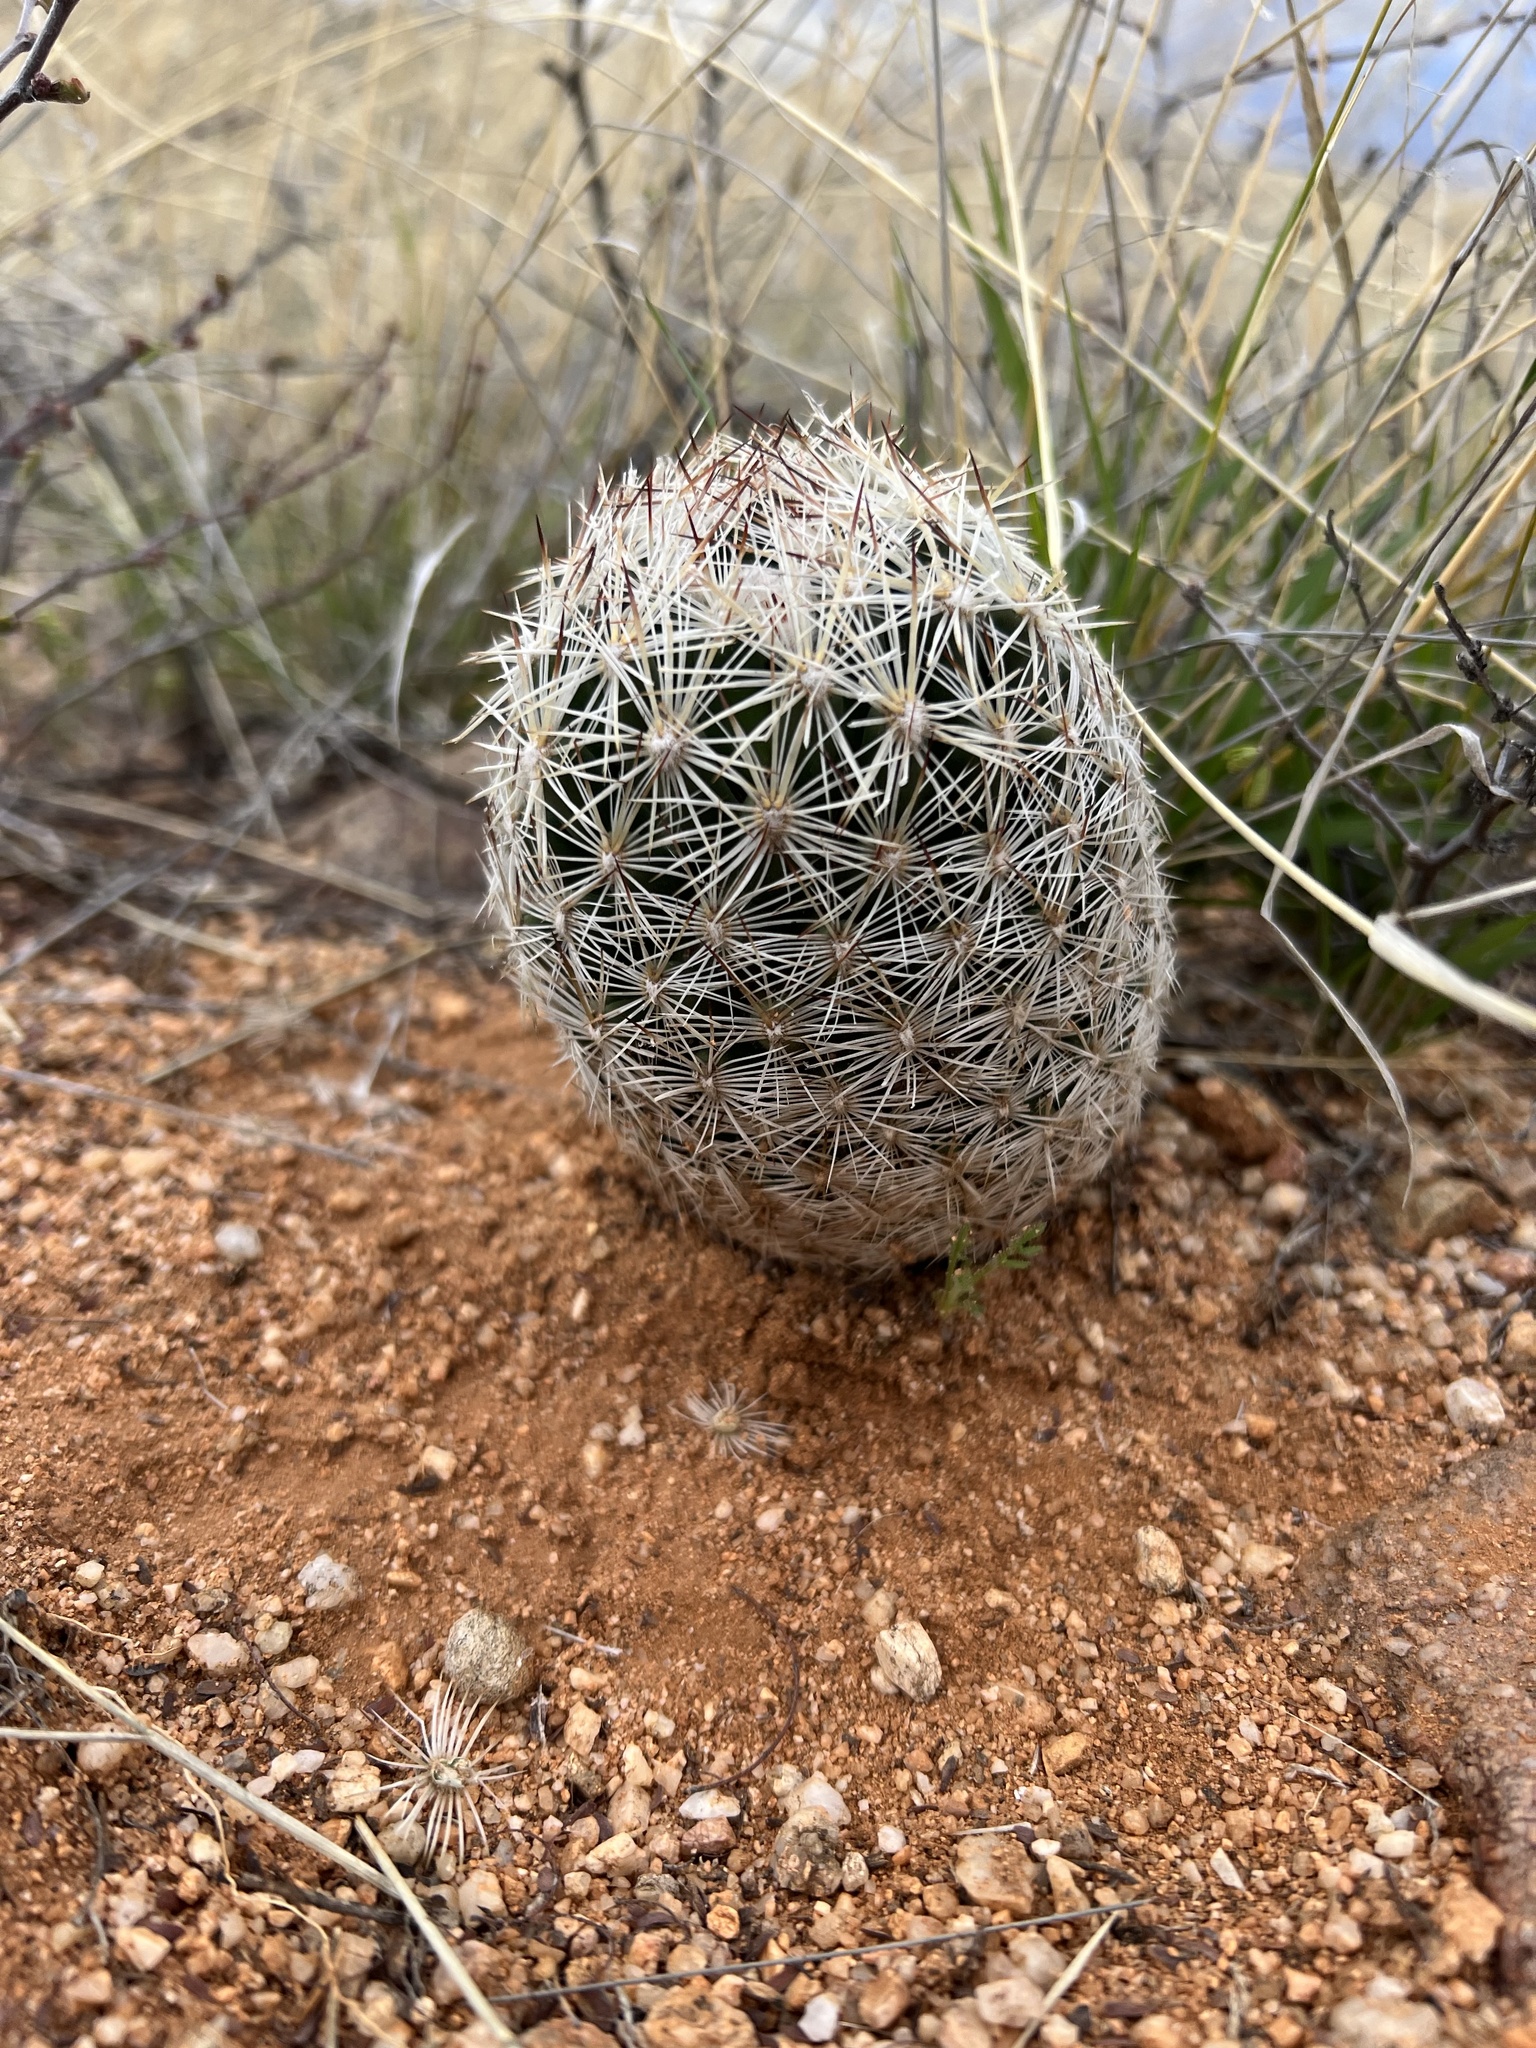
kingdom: Plantae
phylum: Tracheophyta
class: Magnoliopsida
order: Caryophyllales
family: Cactaceae
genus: Pelecyphora
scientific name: Pelecyphora vivipara
